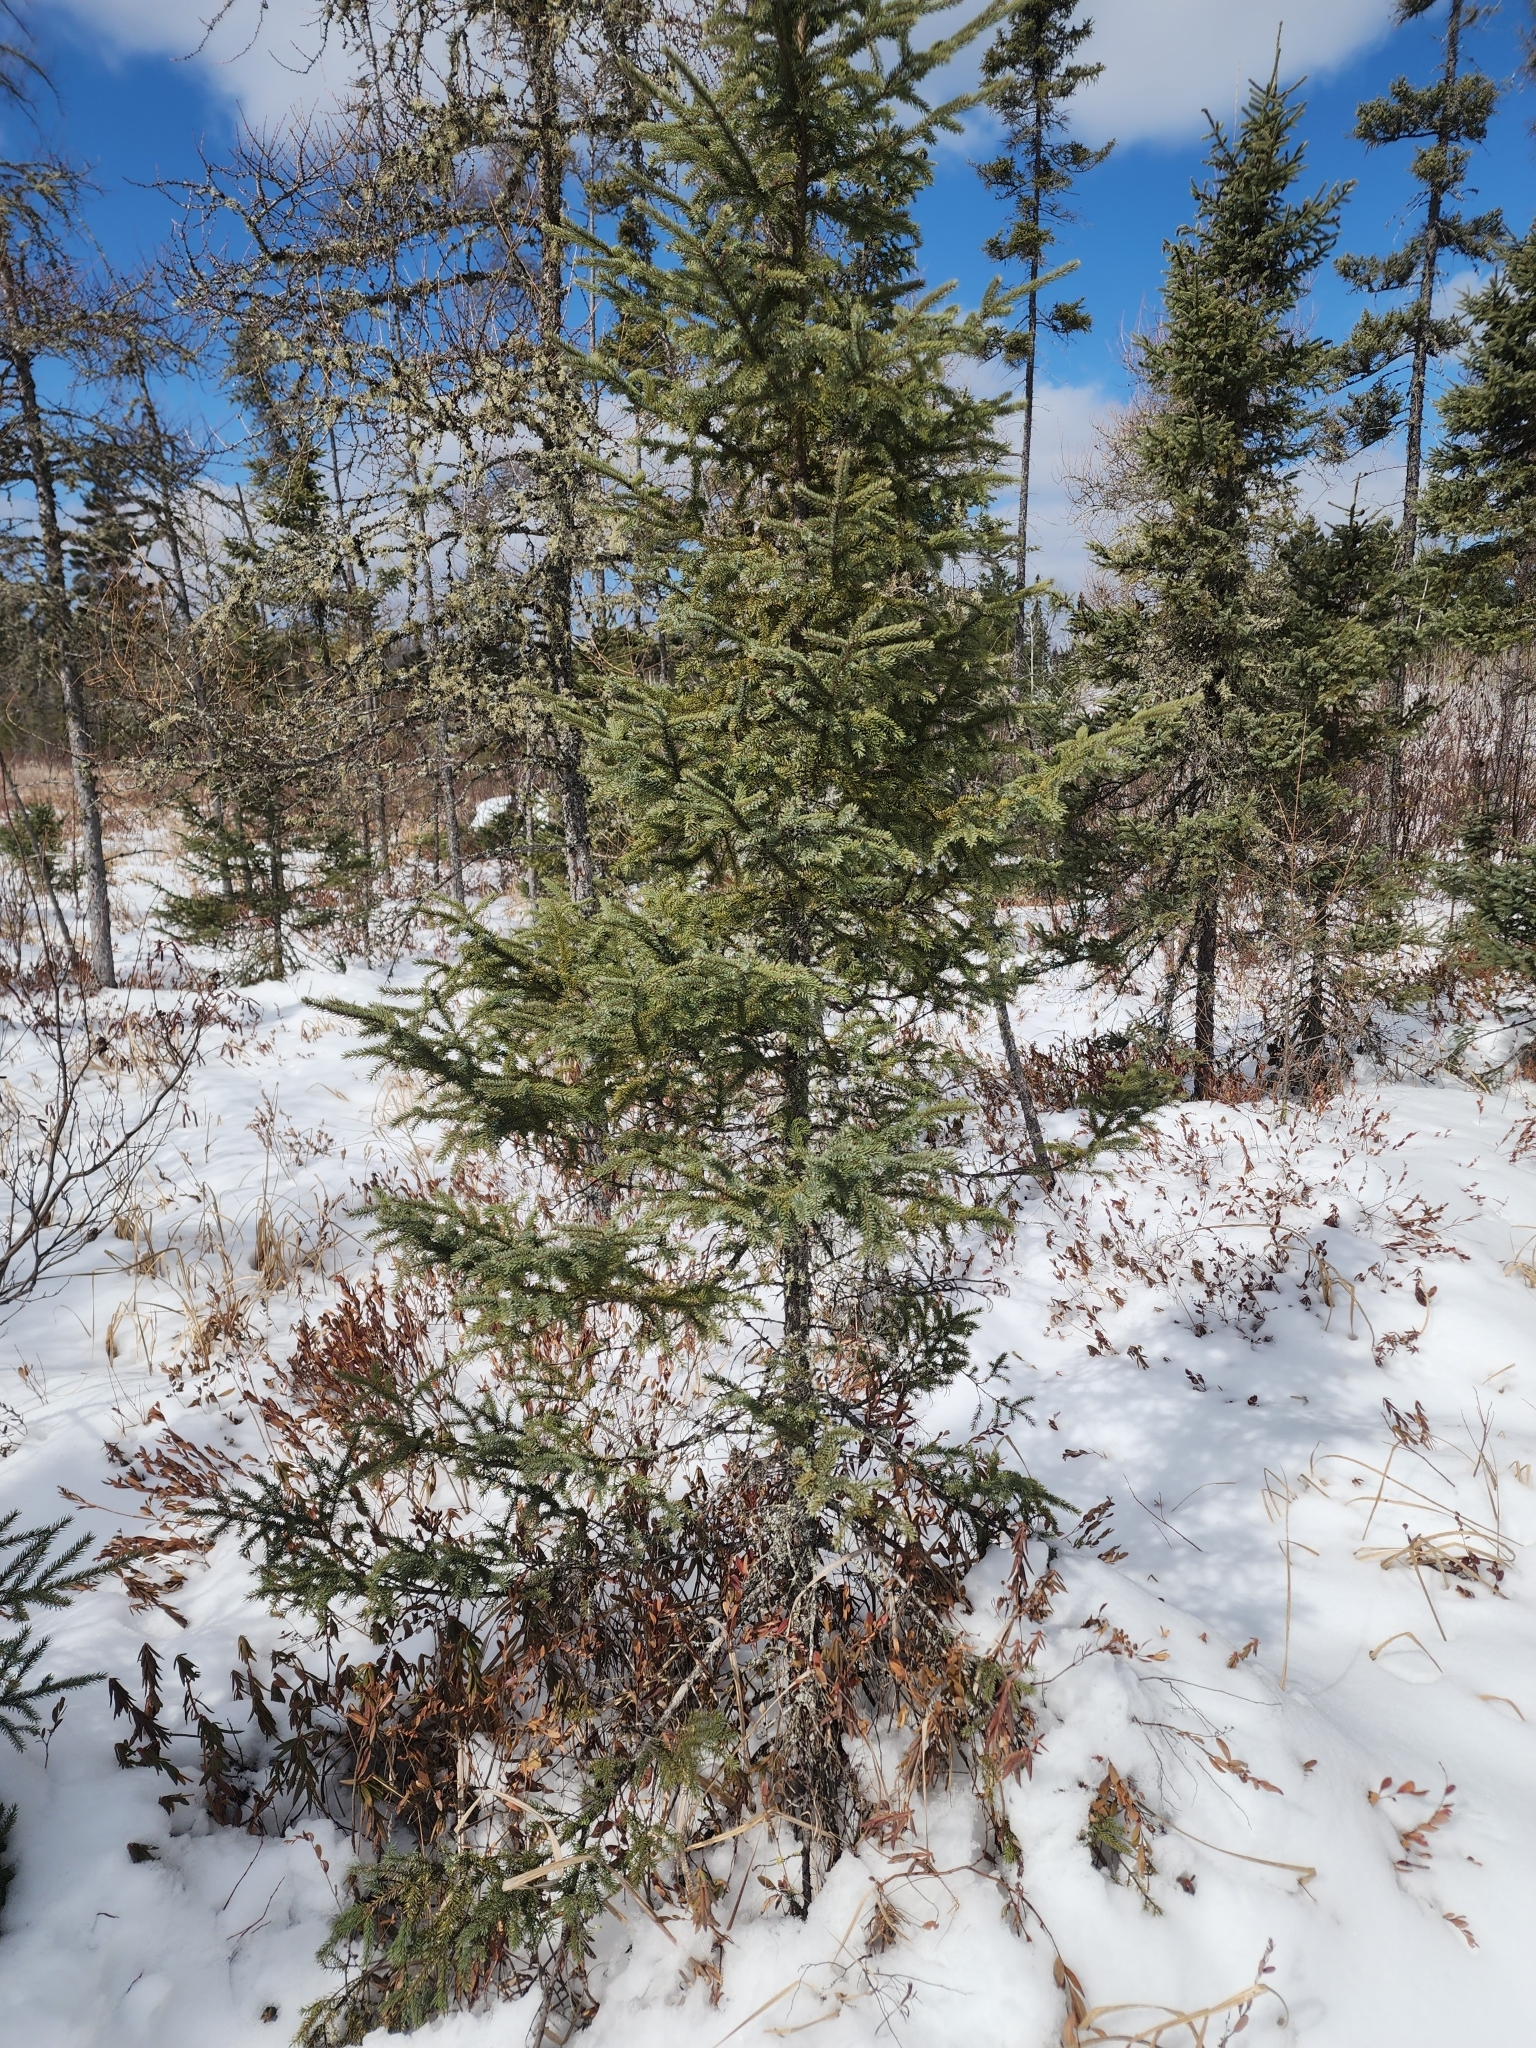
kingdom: Plantae
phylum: Tracheophyta
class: Pinopsida
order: Pinales
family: Pinaceae
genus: Picea
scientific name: Picea mariana
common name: Black spruce
